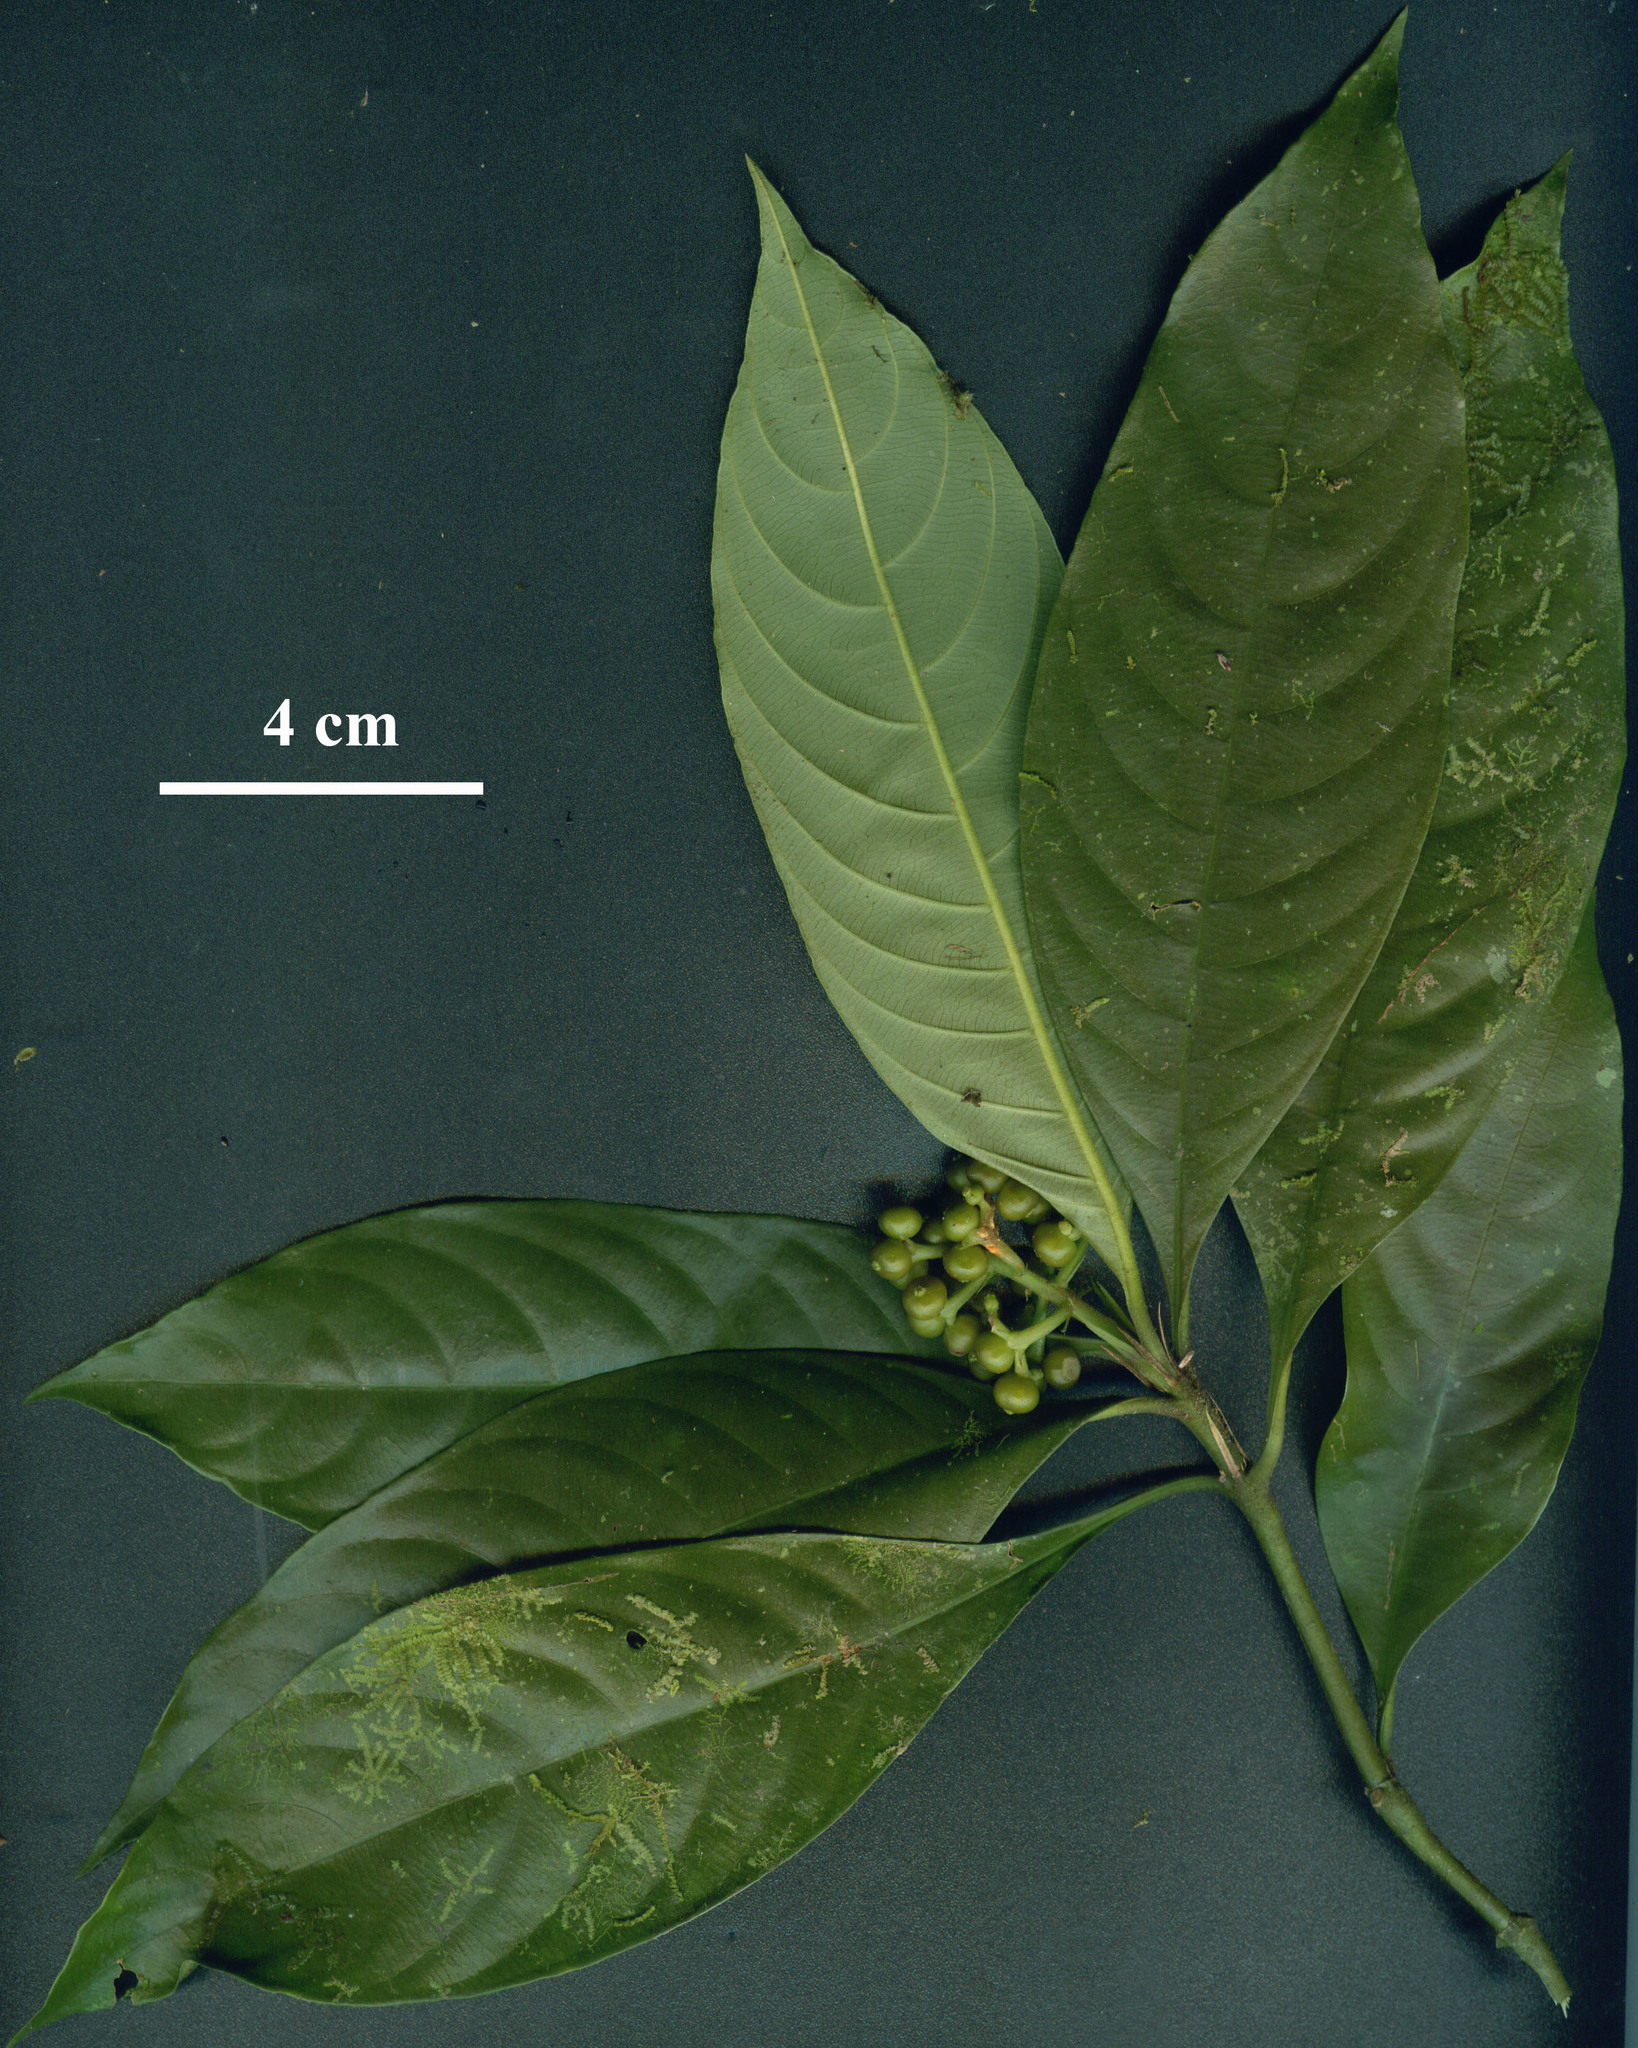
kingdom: Plantae
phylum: Tracheophyta
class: Magnoliopsida
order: Gentianales
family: Rubiaceae
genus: Palicourea
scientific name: Palicourea racemosa
